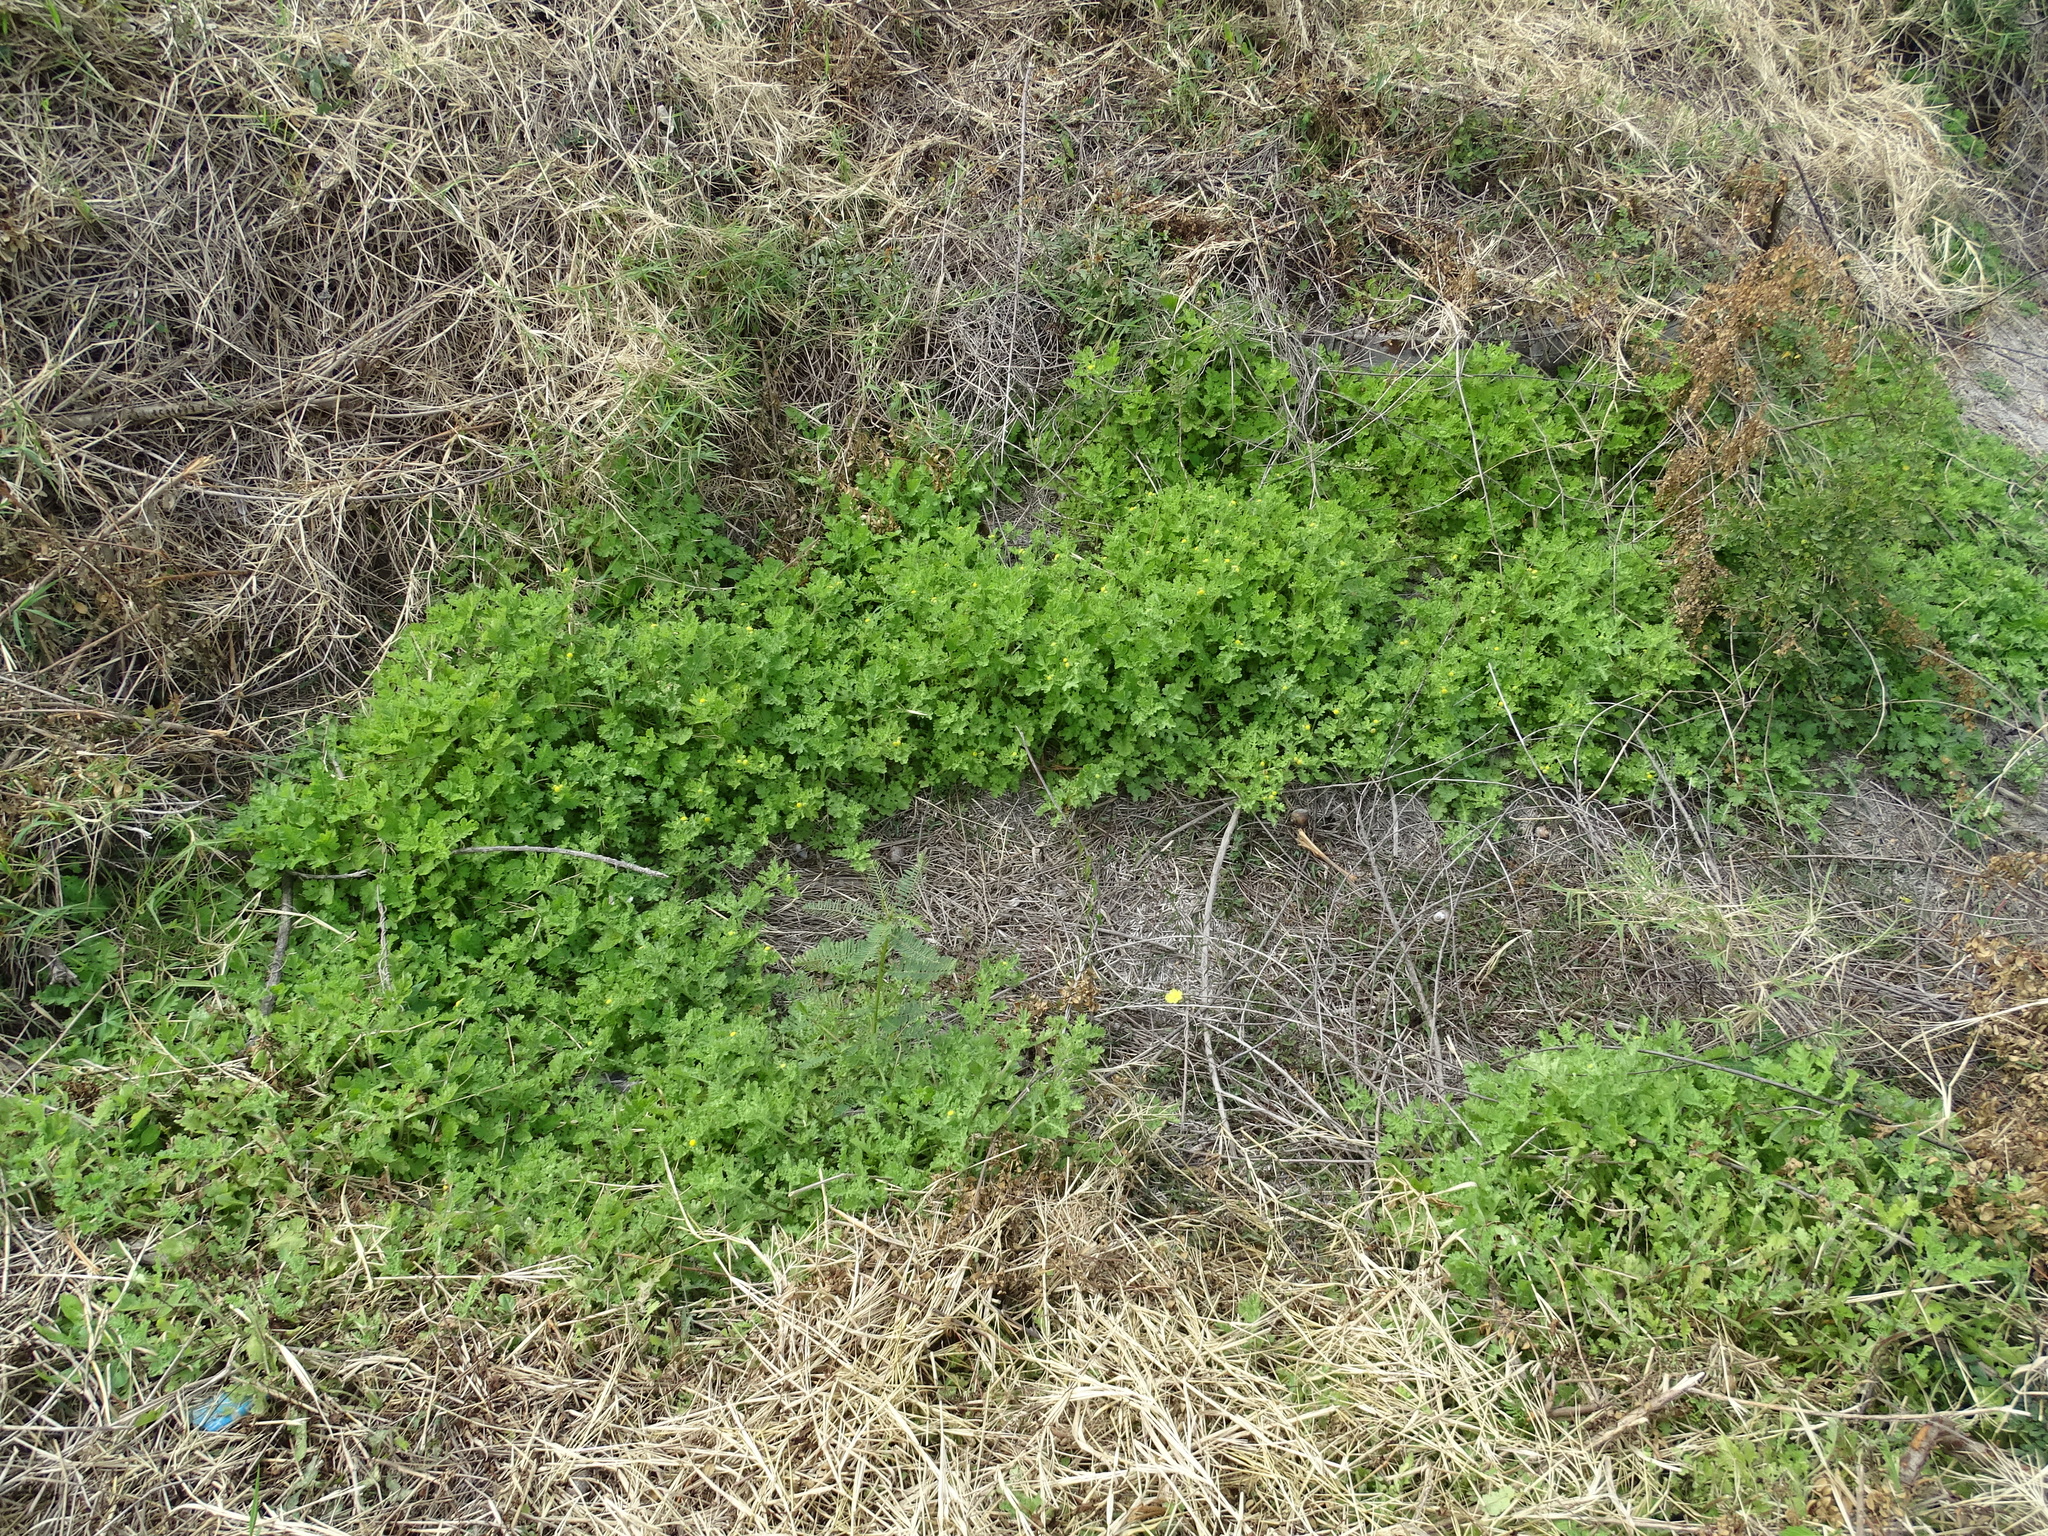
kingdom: Plantae
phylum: Tracheophyta
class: Magnoliopsida
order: Asterales
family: Asteraceae
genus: Grangea
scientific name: Grangea maderaspatana
